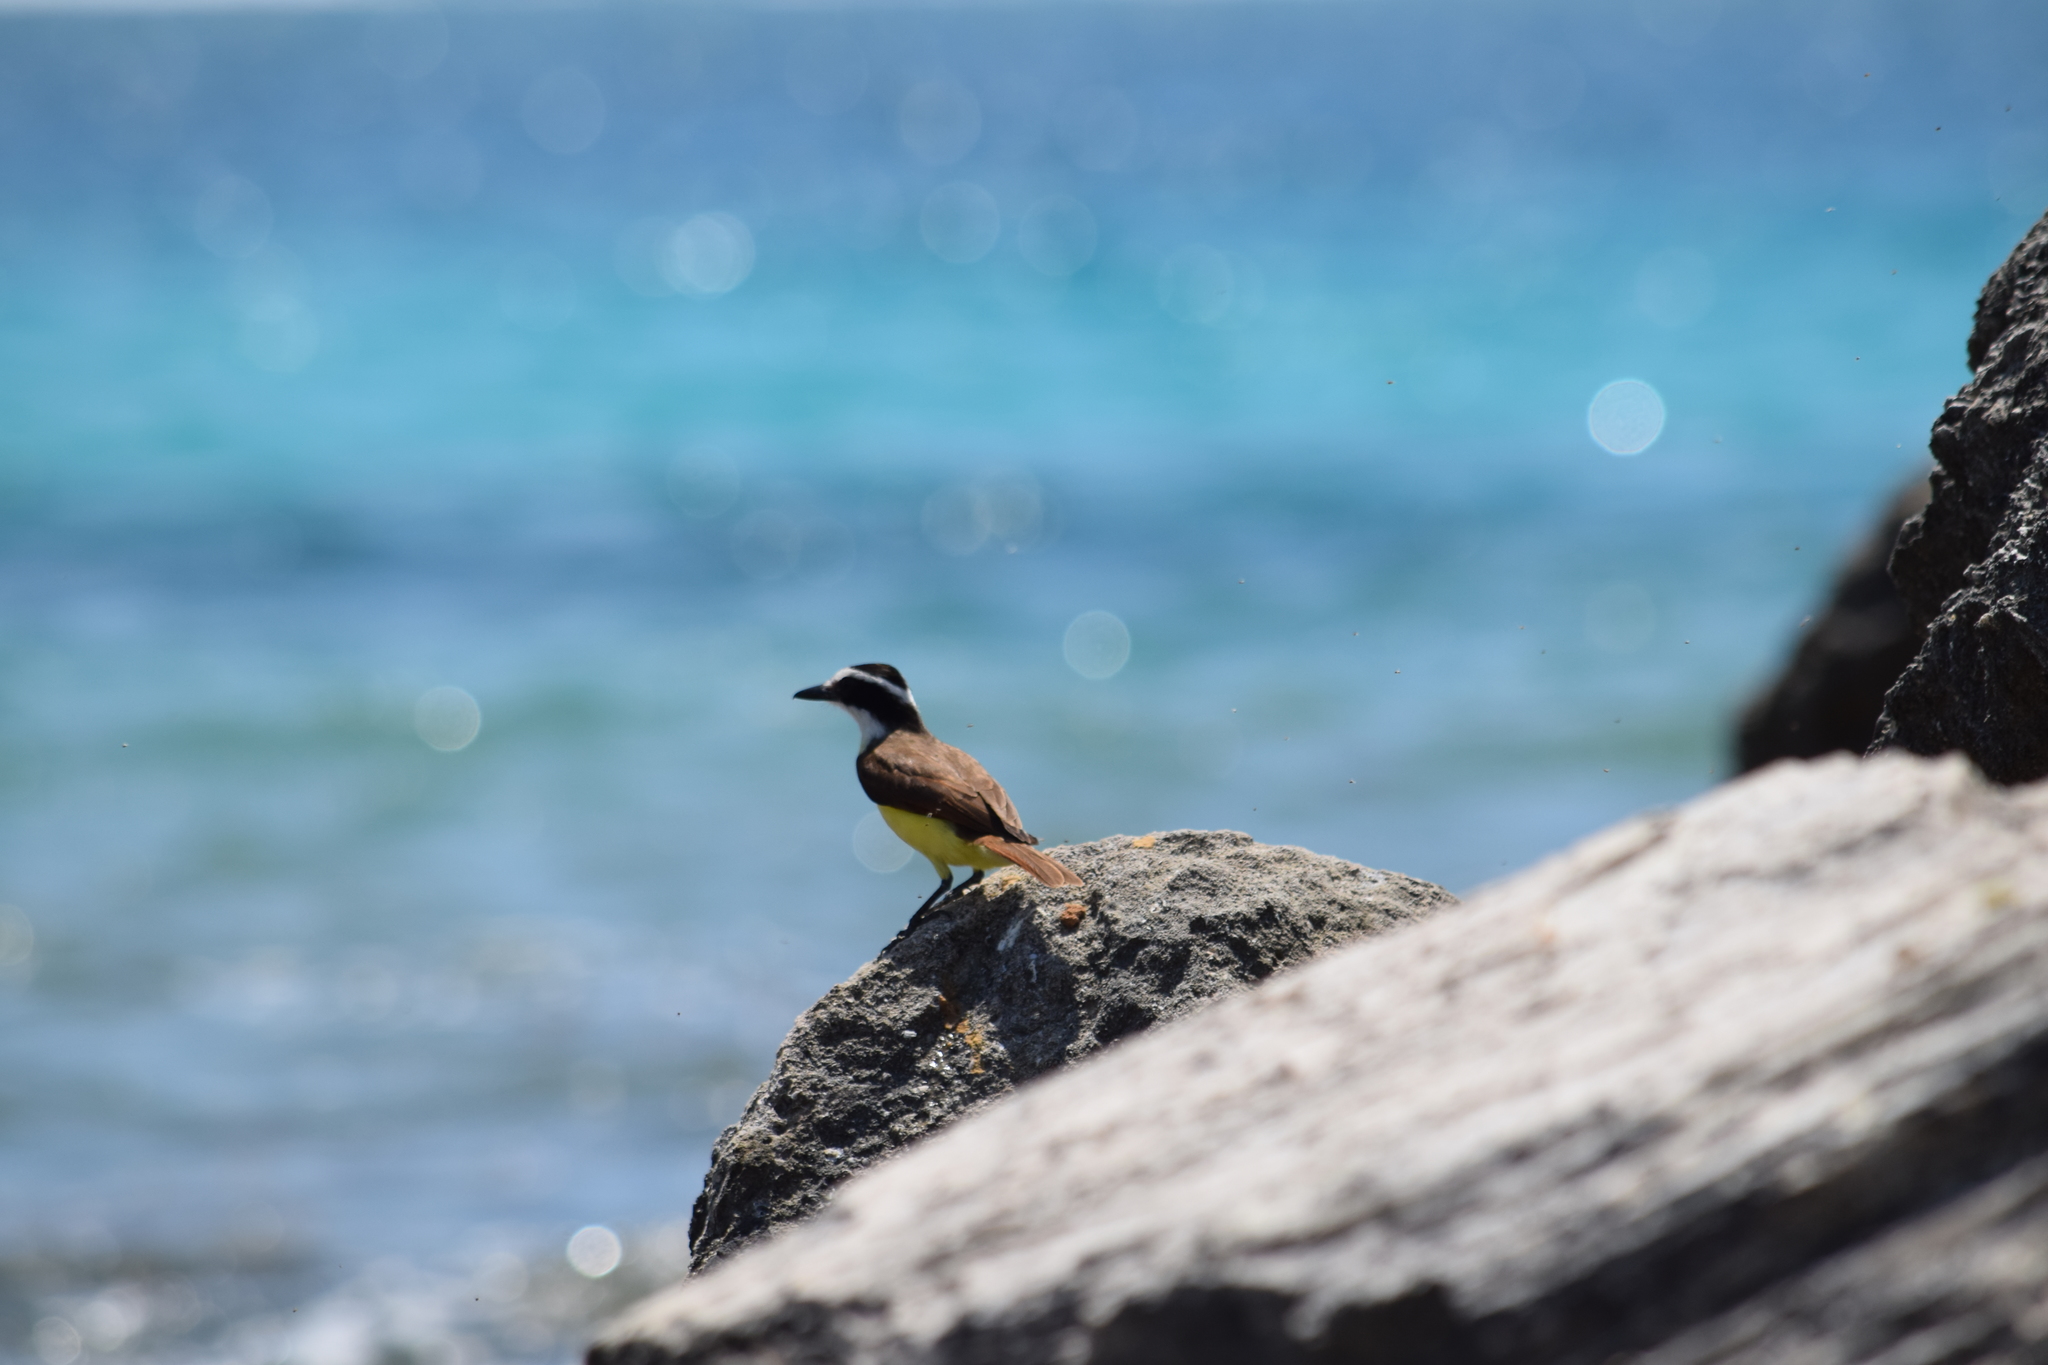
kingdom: Animalia
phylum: Chordata
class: Aves
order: Passeriformes
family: Tyrannidae
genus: Pitangus
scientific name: Pitangus sulphuratus
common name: Great kiskadee
